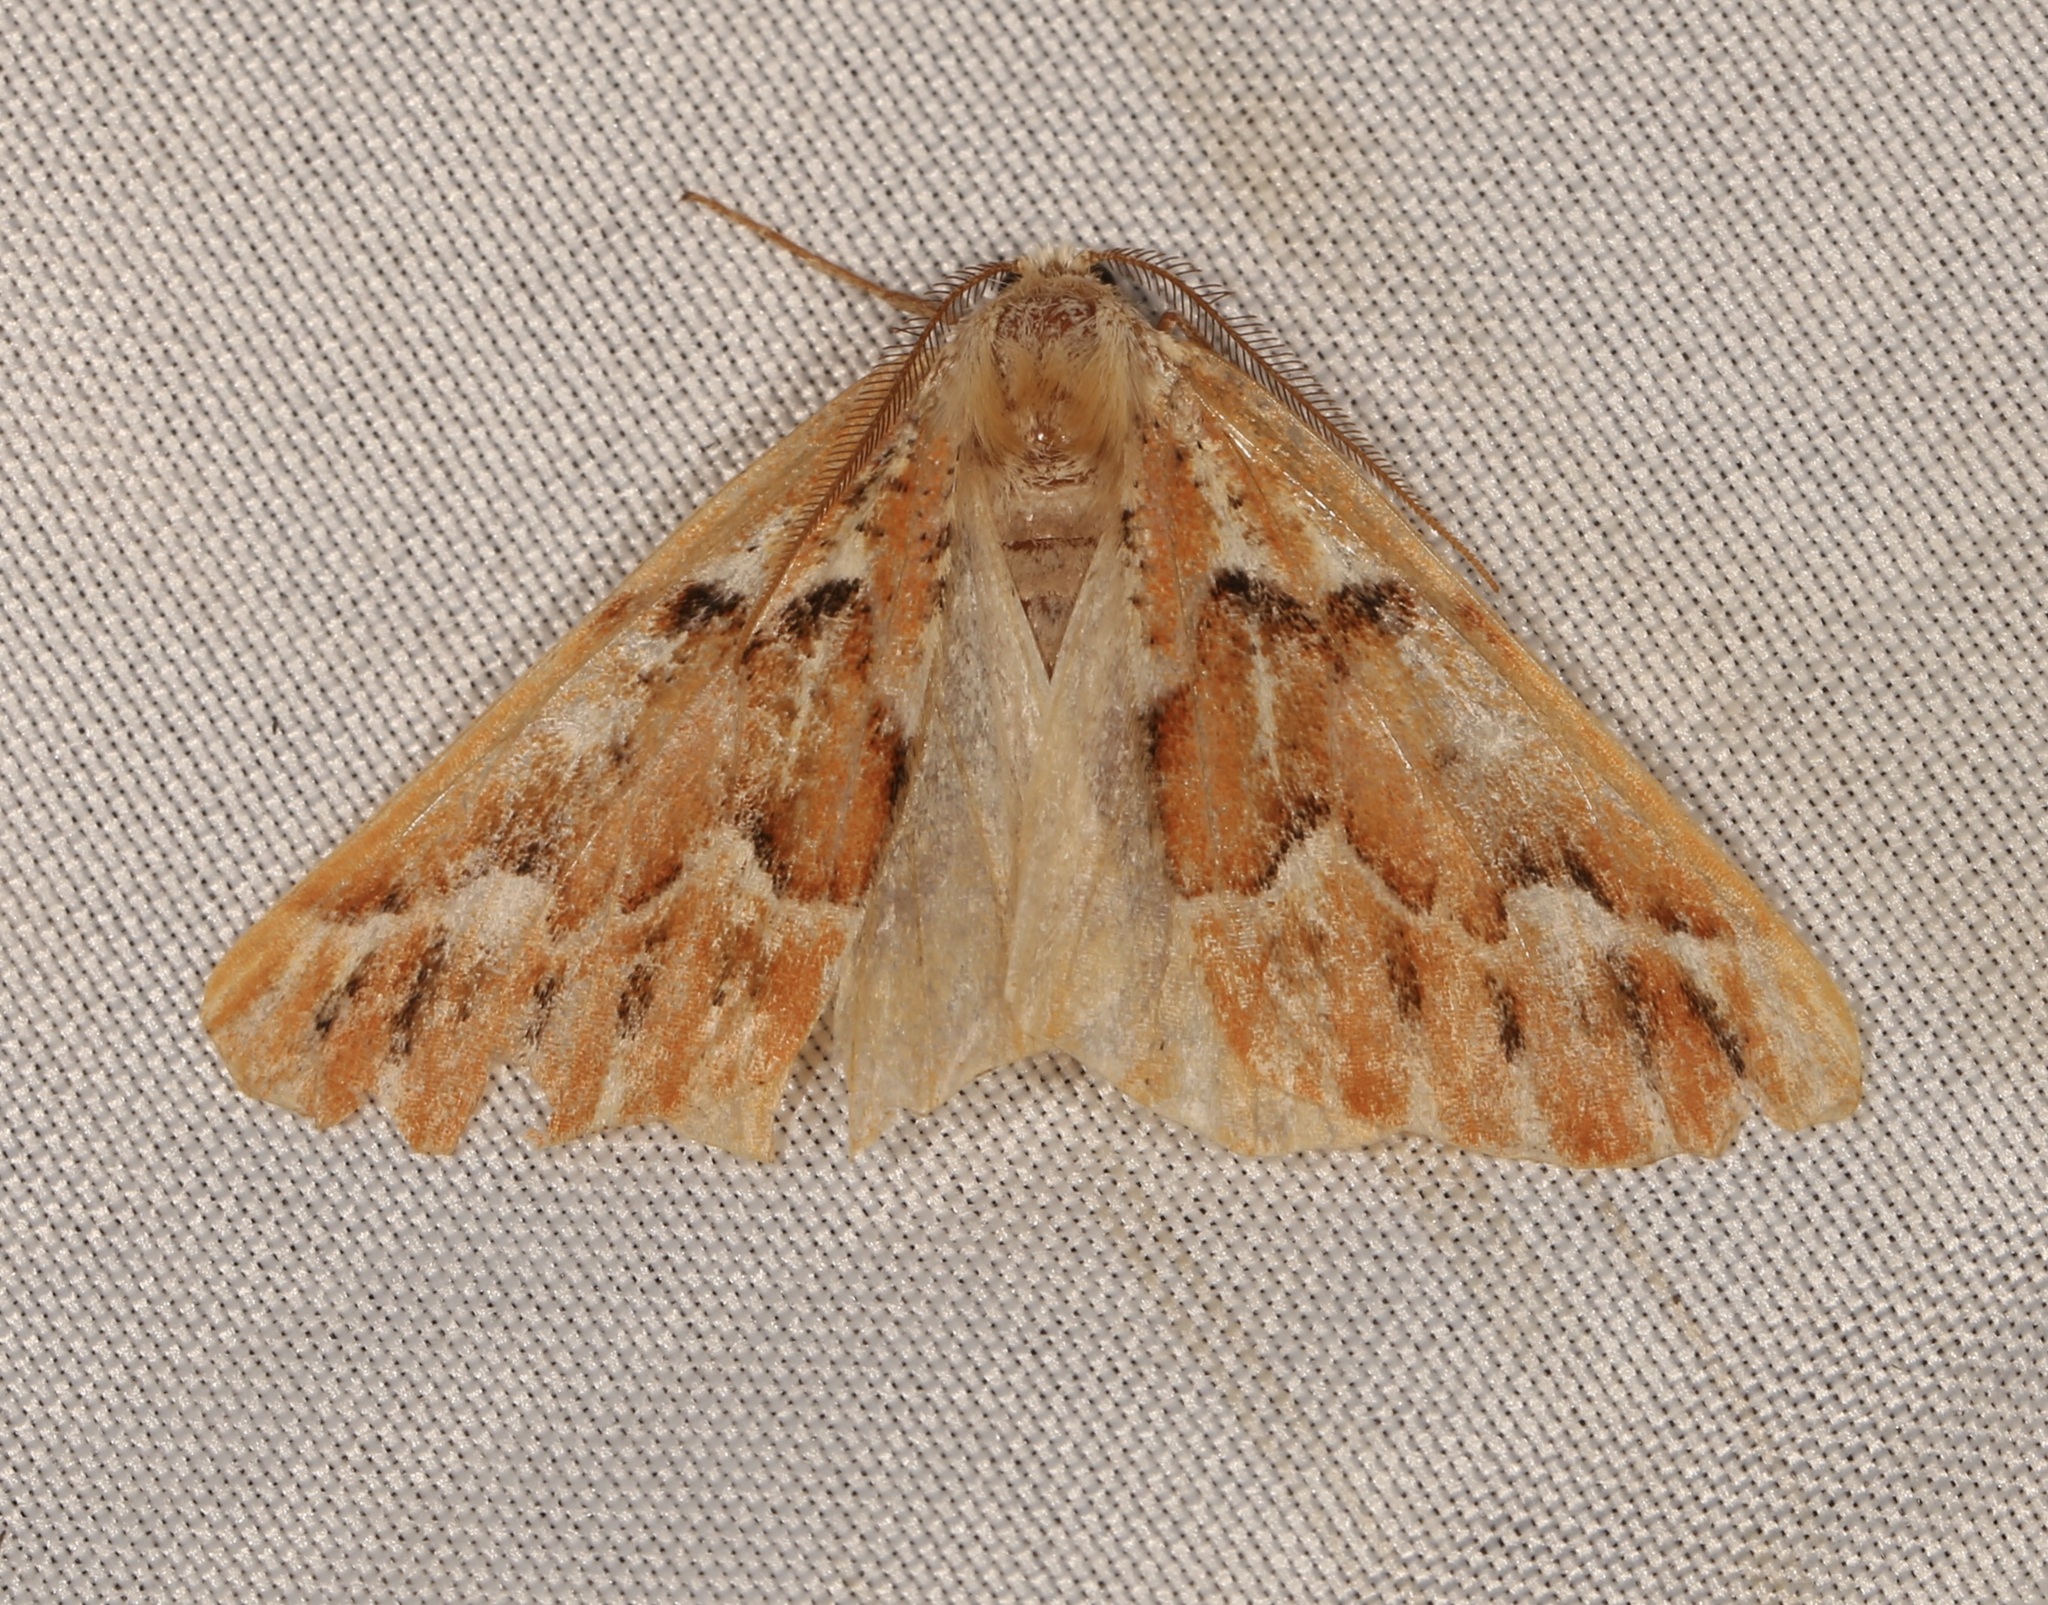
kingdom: Animalia
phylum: Arthropoda
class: Insecta
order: Lepidoptera
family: Geometridae
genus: Caripeta
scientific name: Caripeta aequaliaria
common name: Red girdle moth
